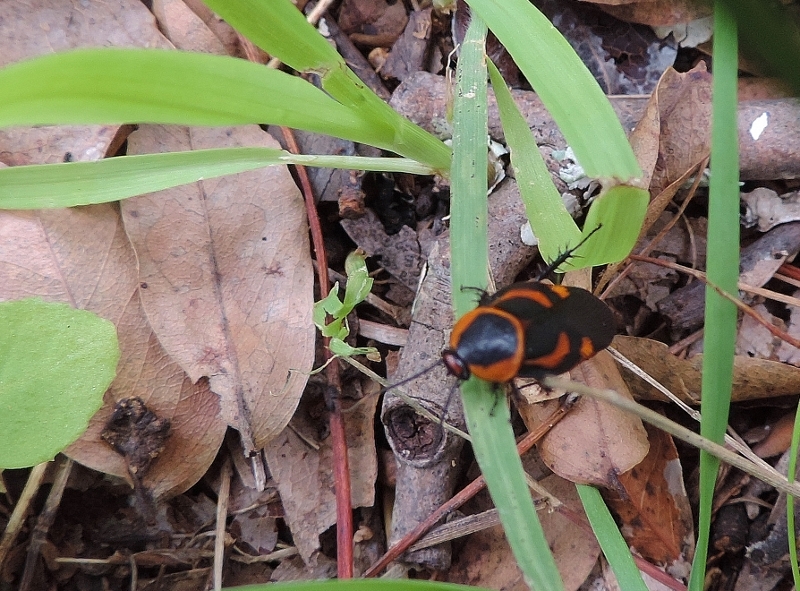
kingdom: Animalia
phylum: Arthropoda
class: Insecta
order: Blattodea
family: Blaberidae
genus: Eustegasta
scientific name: Eustegasta poecila
